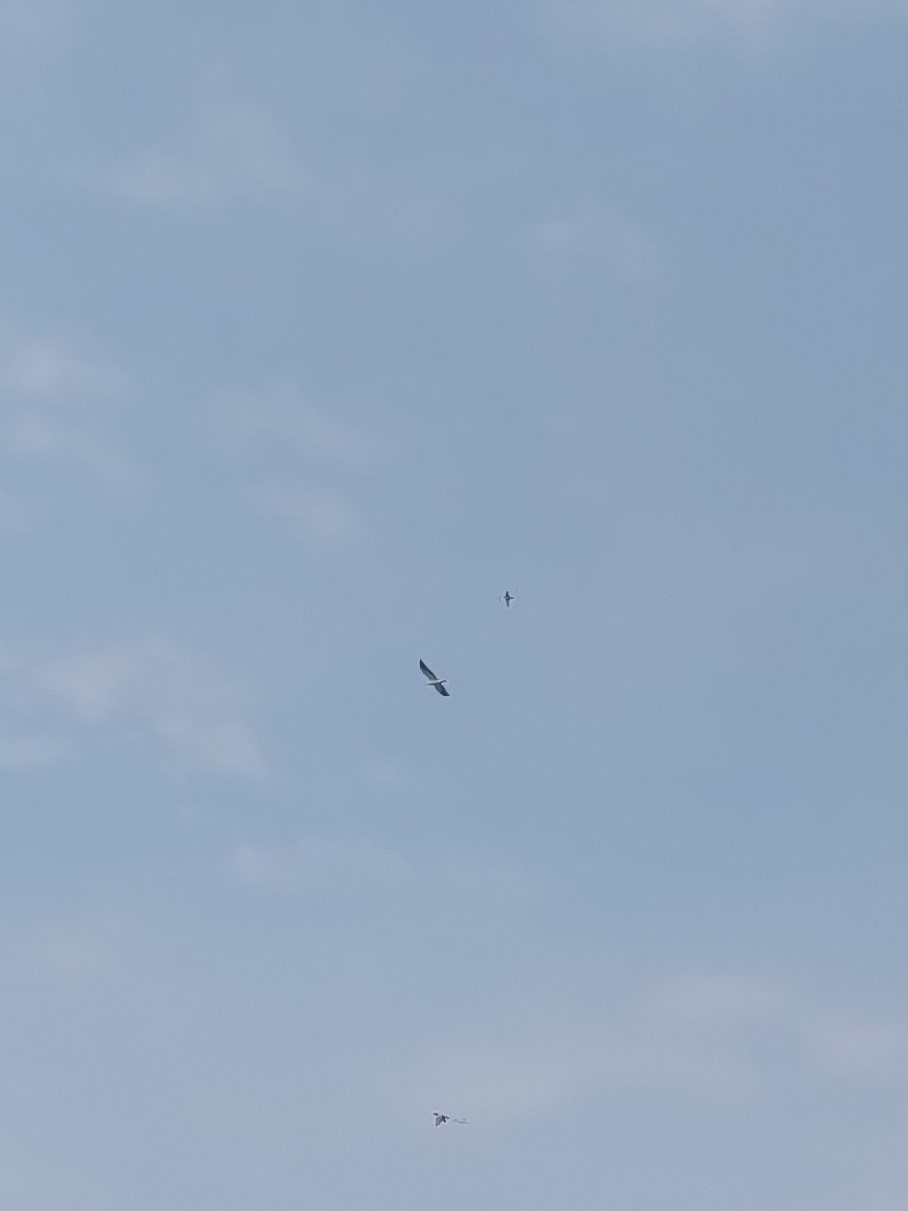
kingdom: Animalia
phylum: Chordata
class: Aves
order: Accipitriformes
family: Accipitridae
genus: Elanus
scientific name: Elanus caeruleus
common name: Black-winged kite
